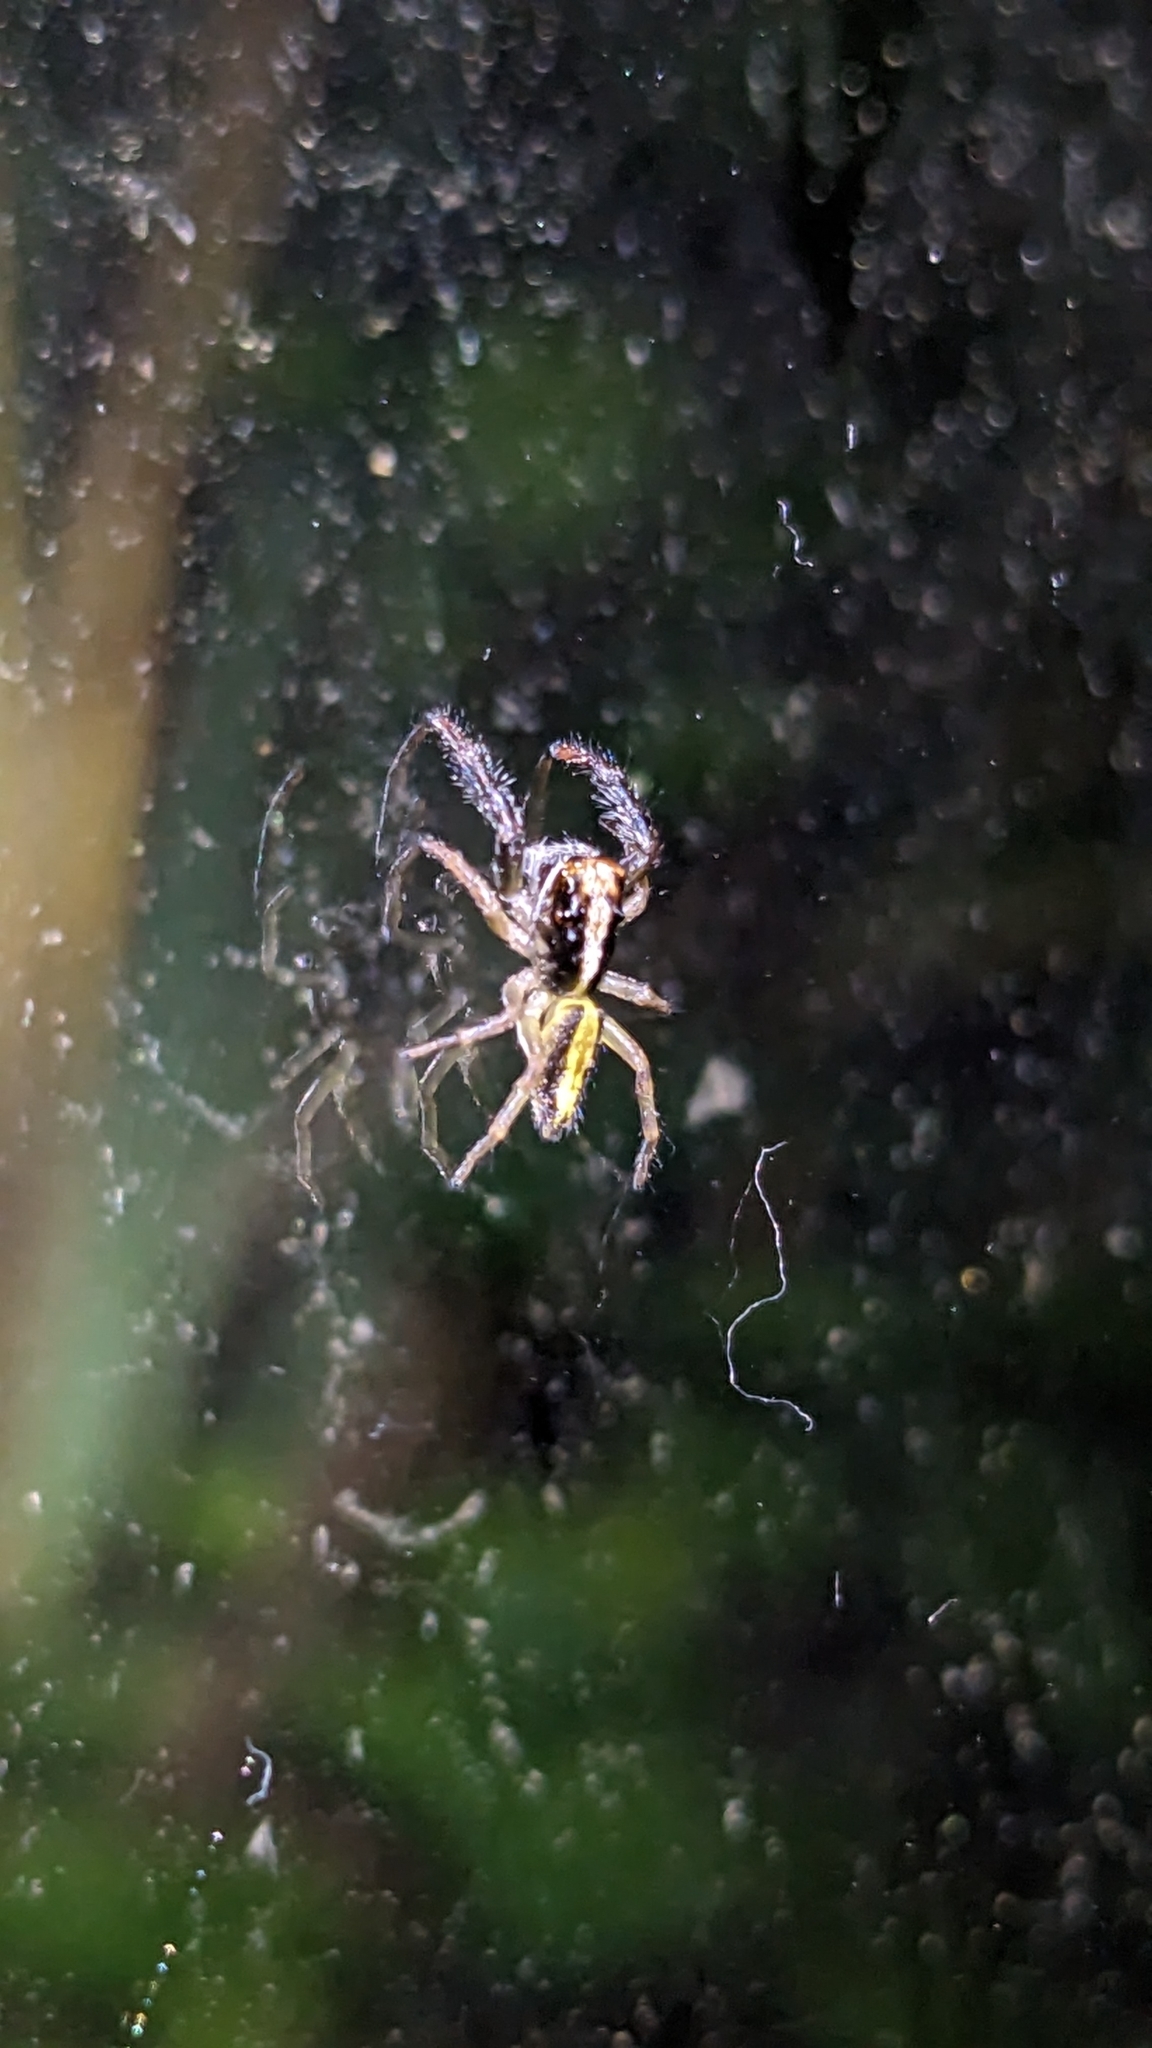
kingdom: Animalia
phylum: Arthropoda
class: Arachnida
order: Araneae
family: Salticidae
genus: Trite
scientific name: Trite planiceps
